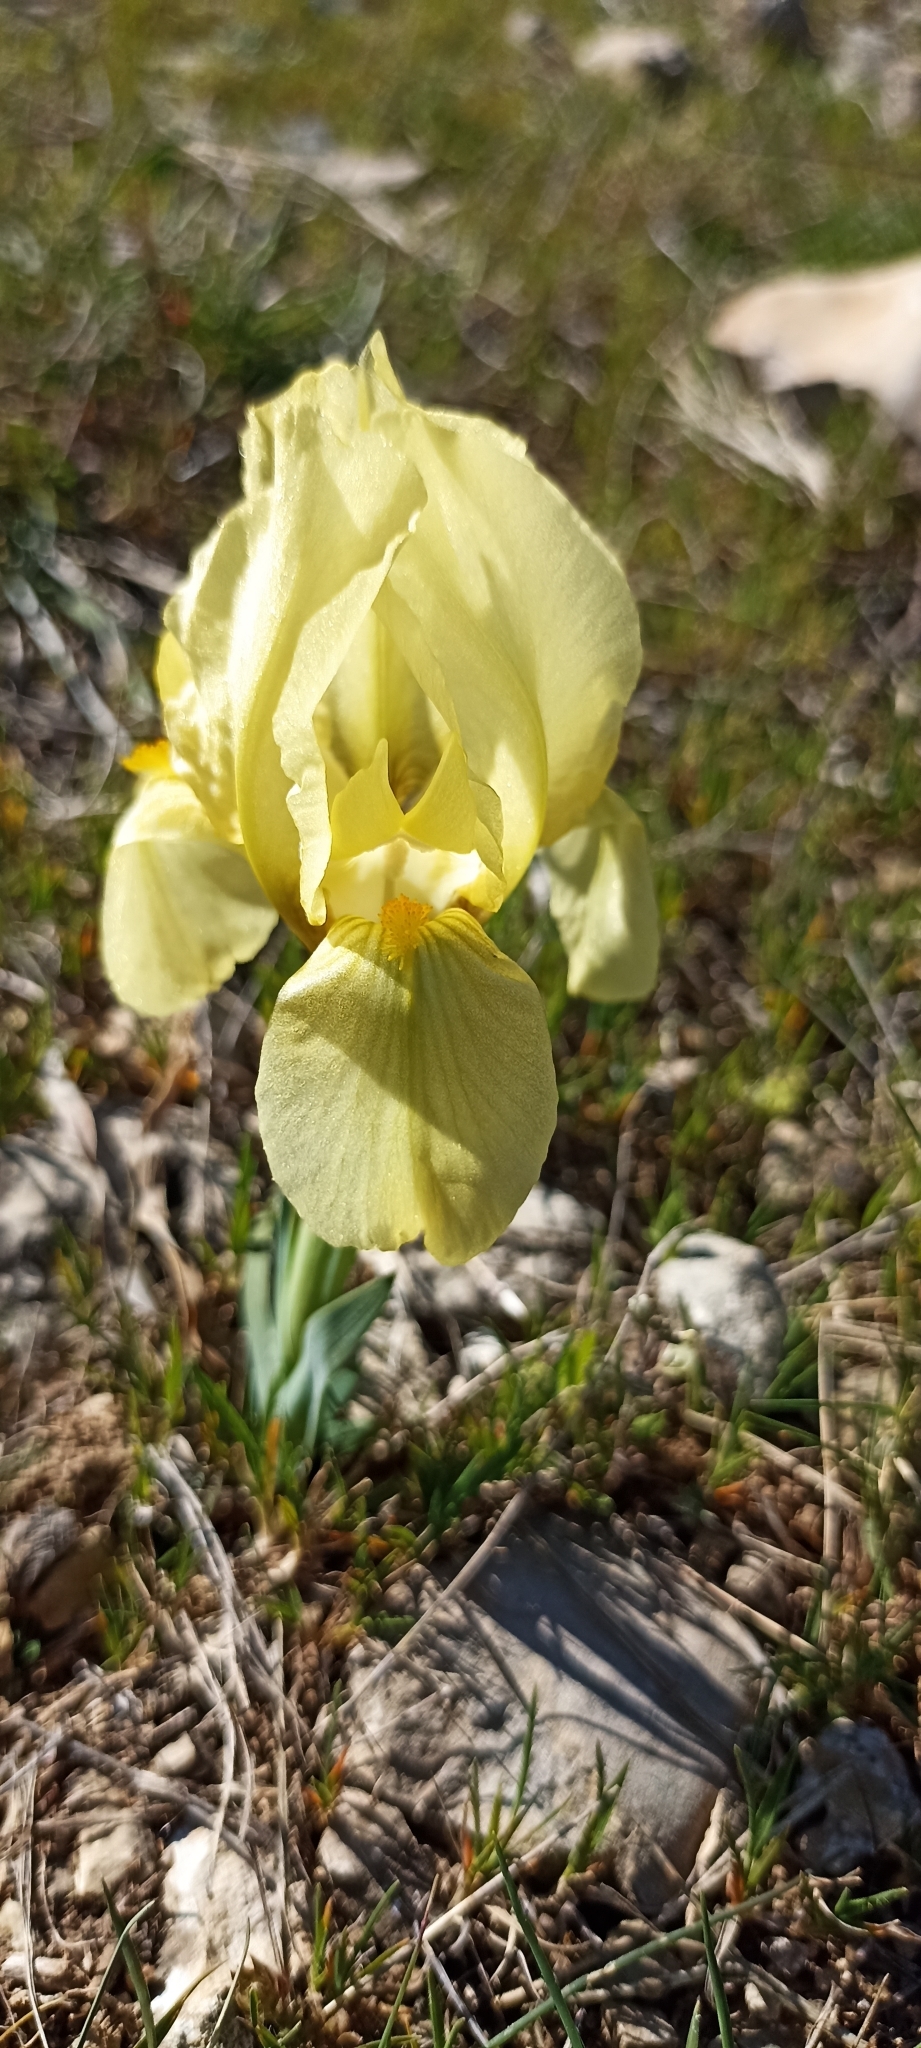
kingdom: Plantae
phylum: Tracheophyta
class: Liliopsida
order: Asparagales
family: Iridaceae
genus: Iris
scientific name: Iris lutescens
